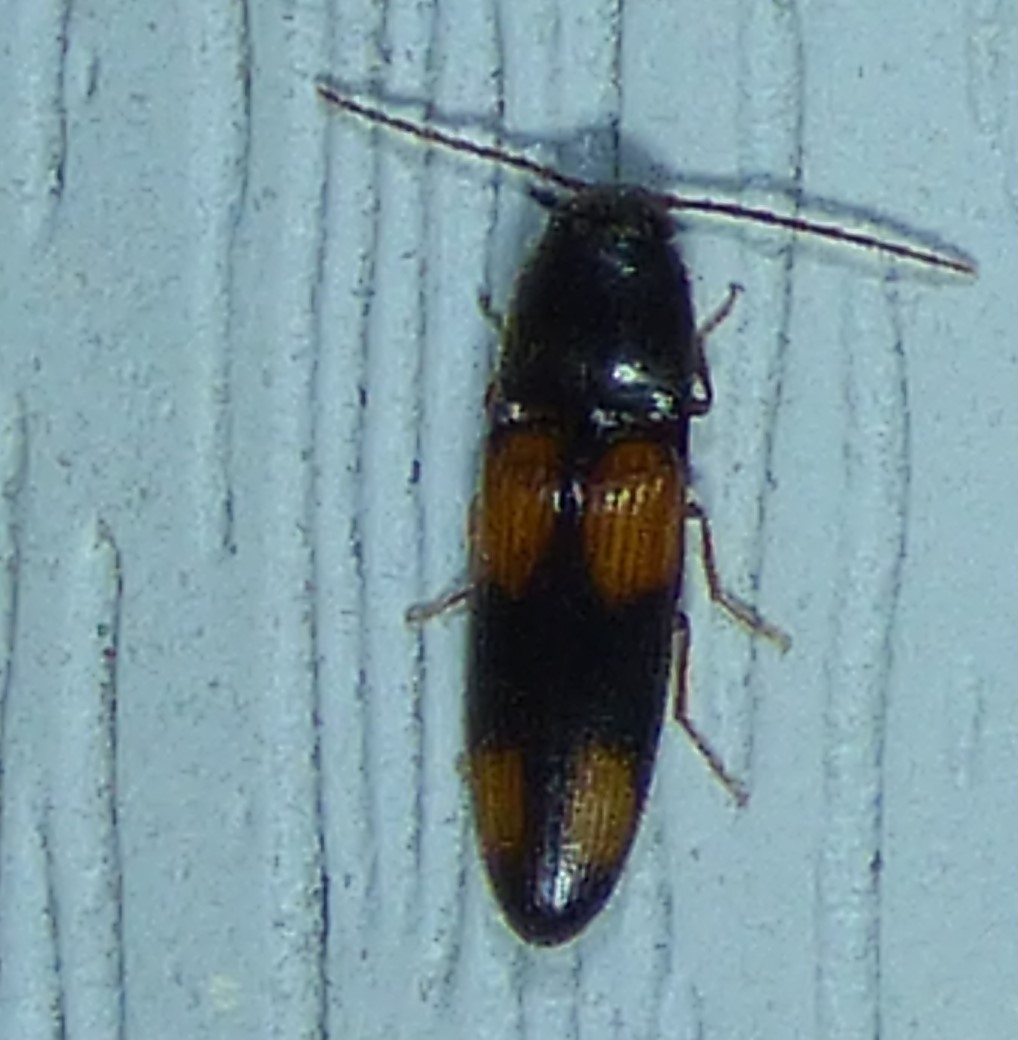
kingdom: Animalia
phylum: Arthropoda
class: Insecta
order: Coleoptera
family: Elateridae
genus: Anchastus
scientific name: Anchastus binus
